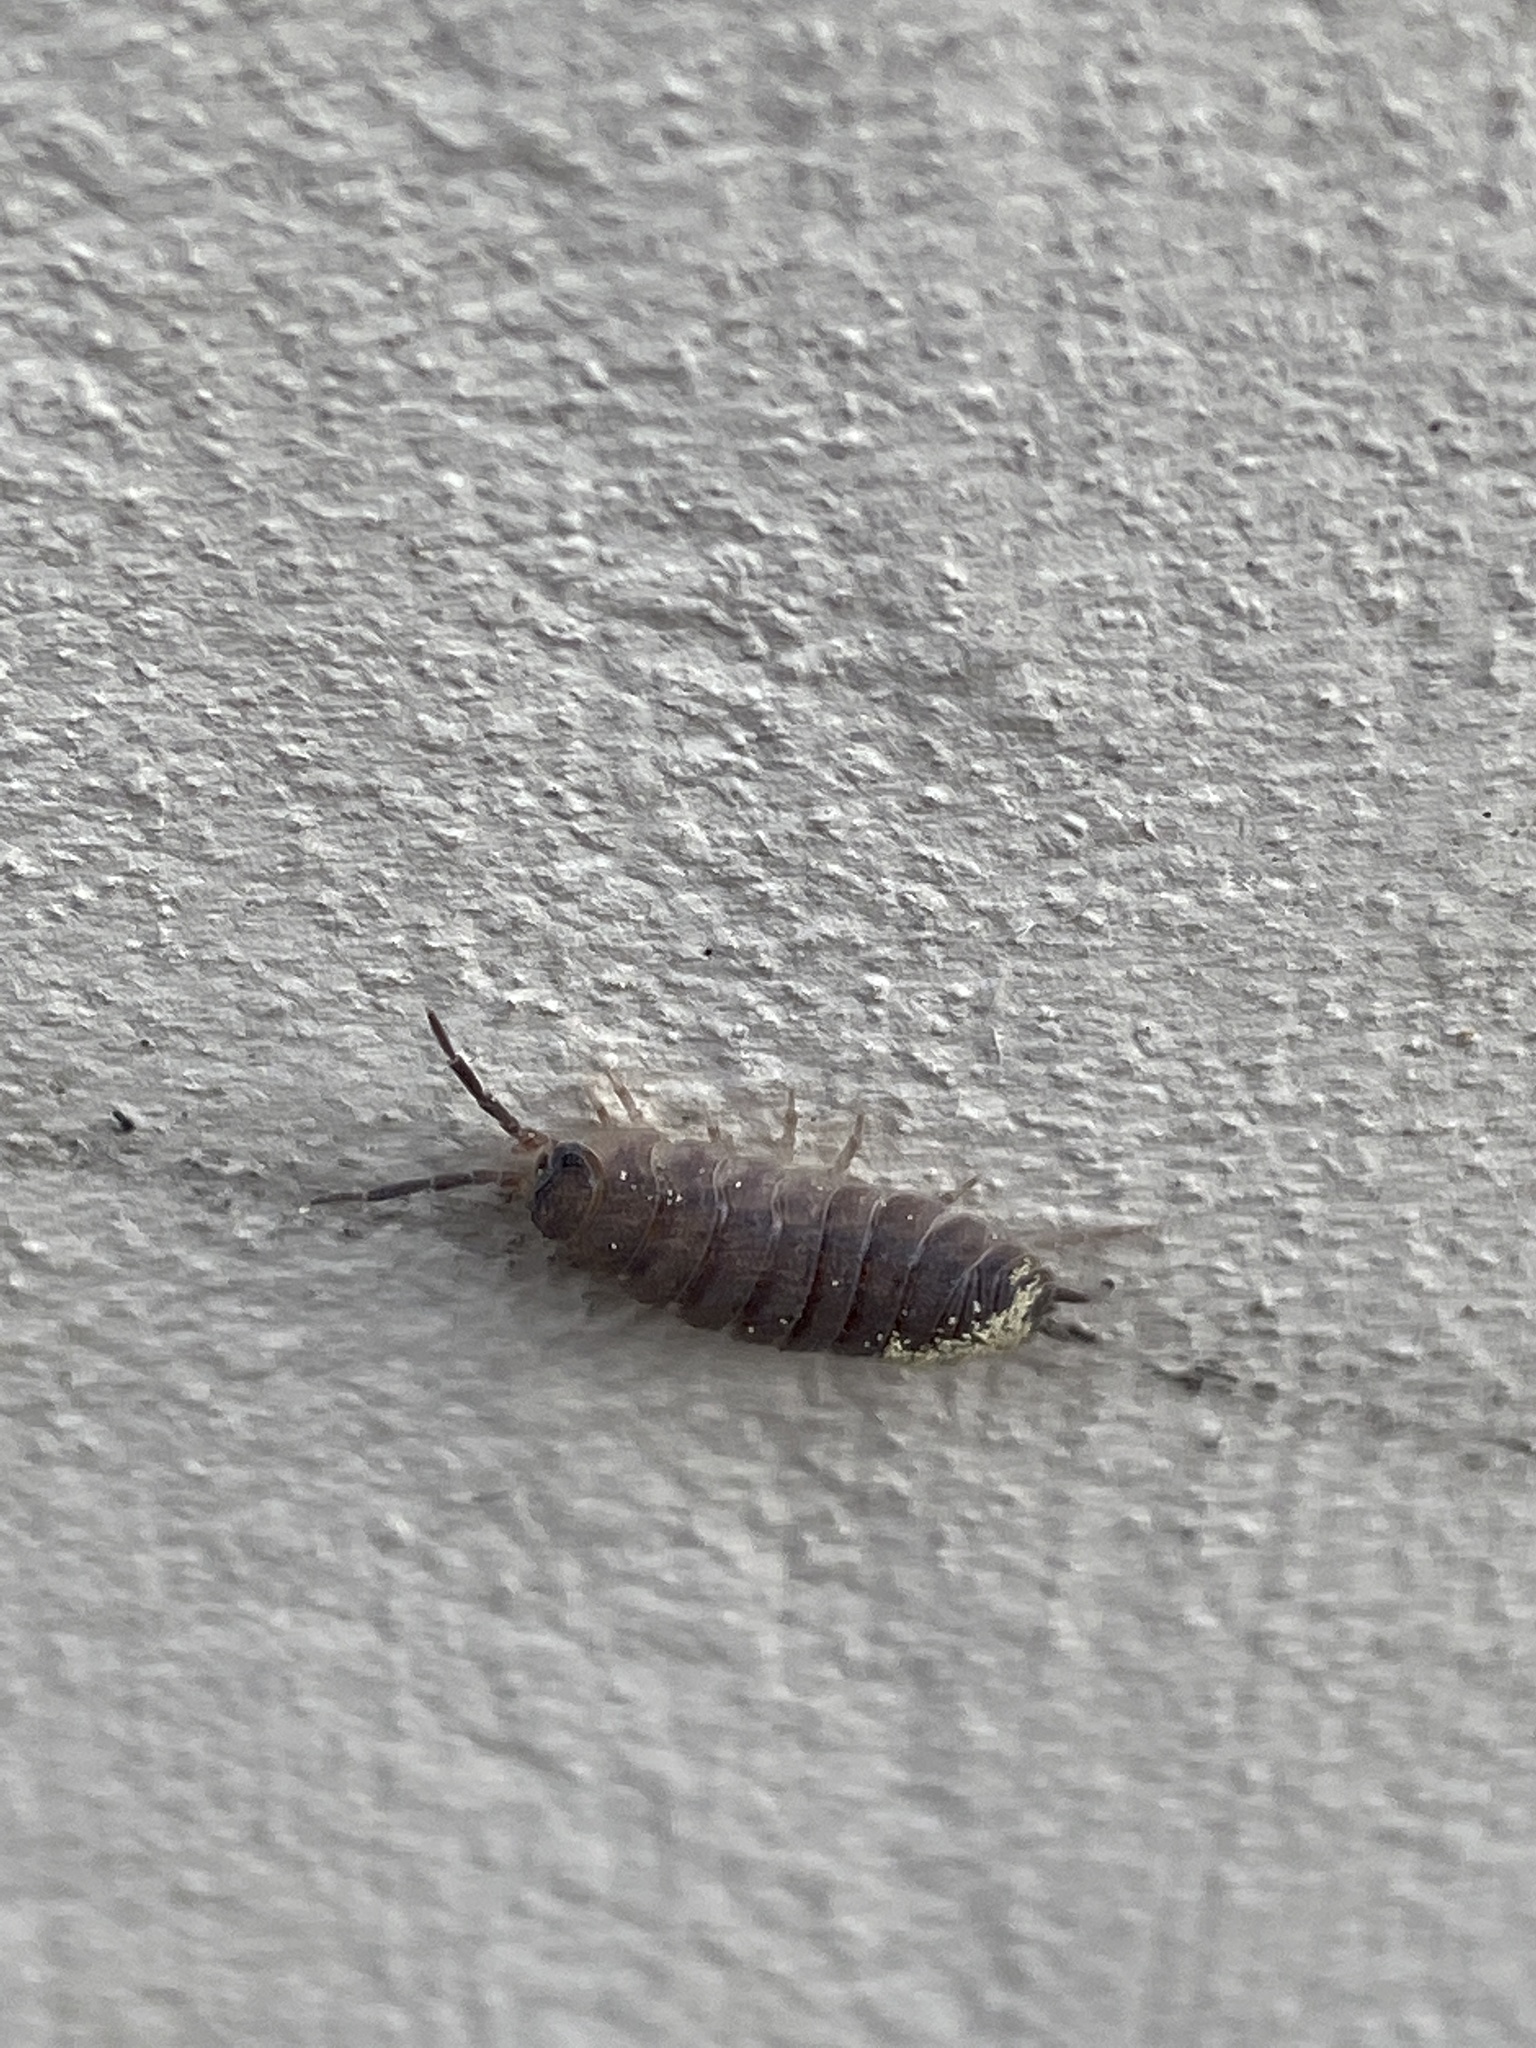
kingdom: Animalia
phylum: Arthropoda
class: Malacostraca
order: Isopoda
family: Porcellionidae
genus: Porcellio
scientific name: Porcellio scaber
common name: Common rough woodlouse
